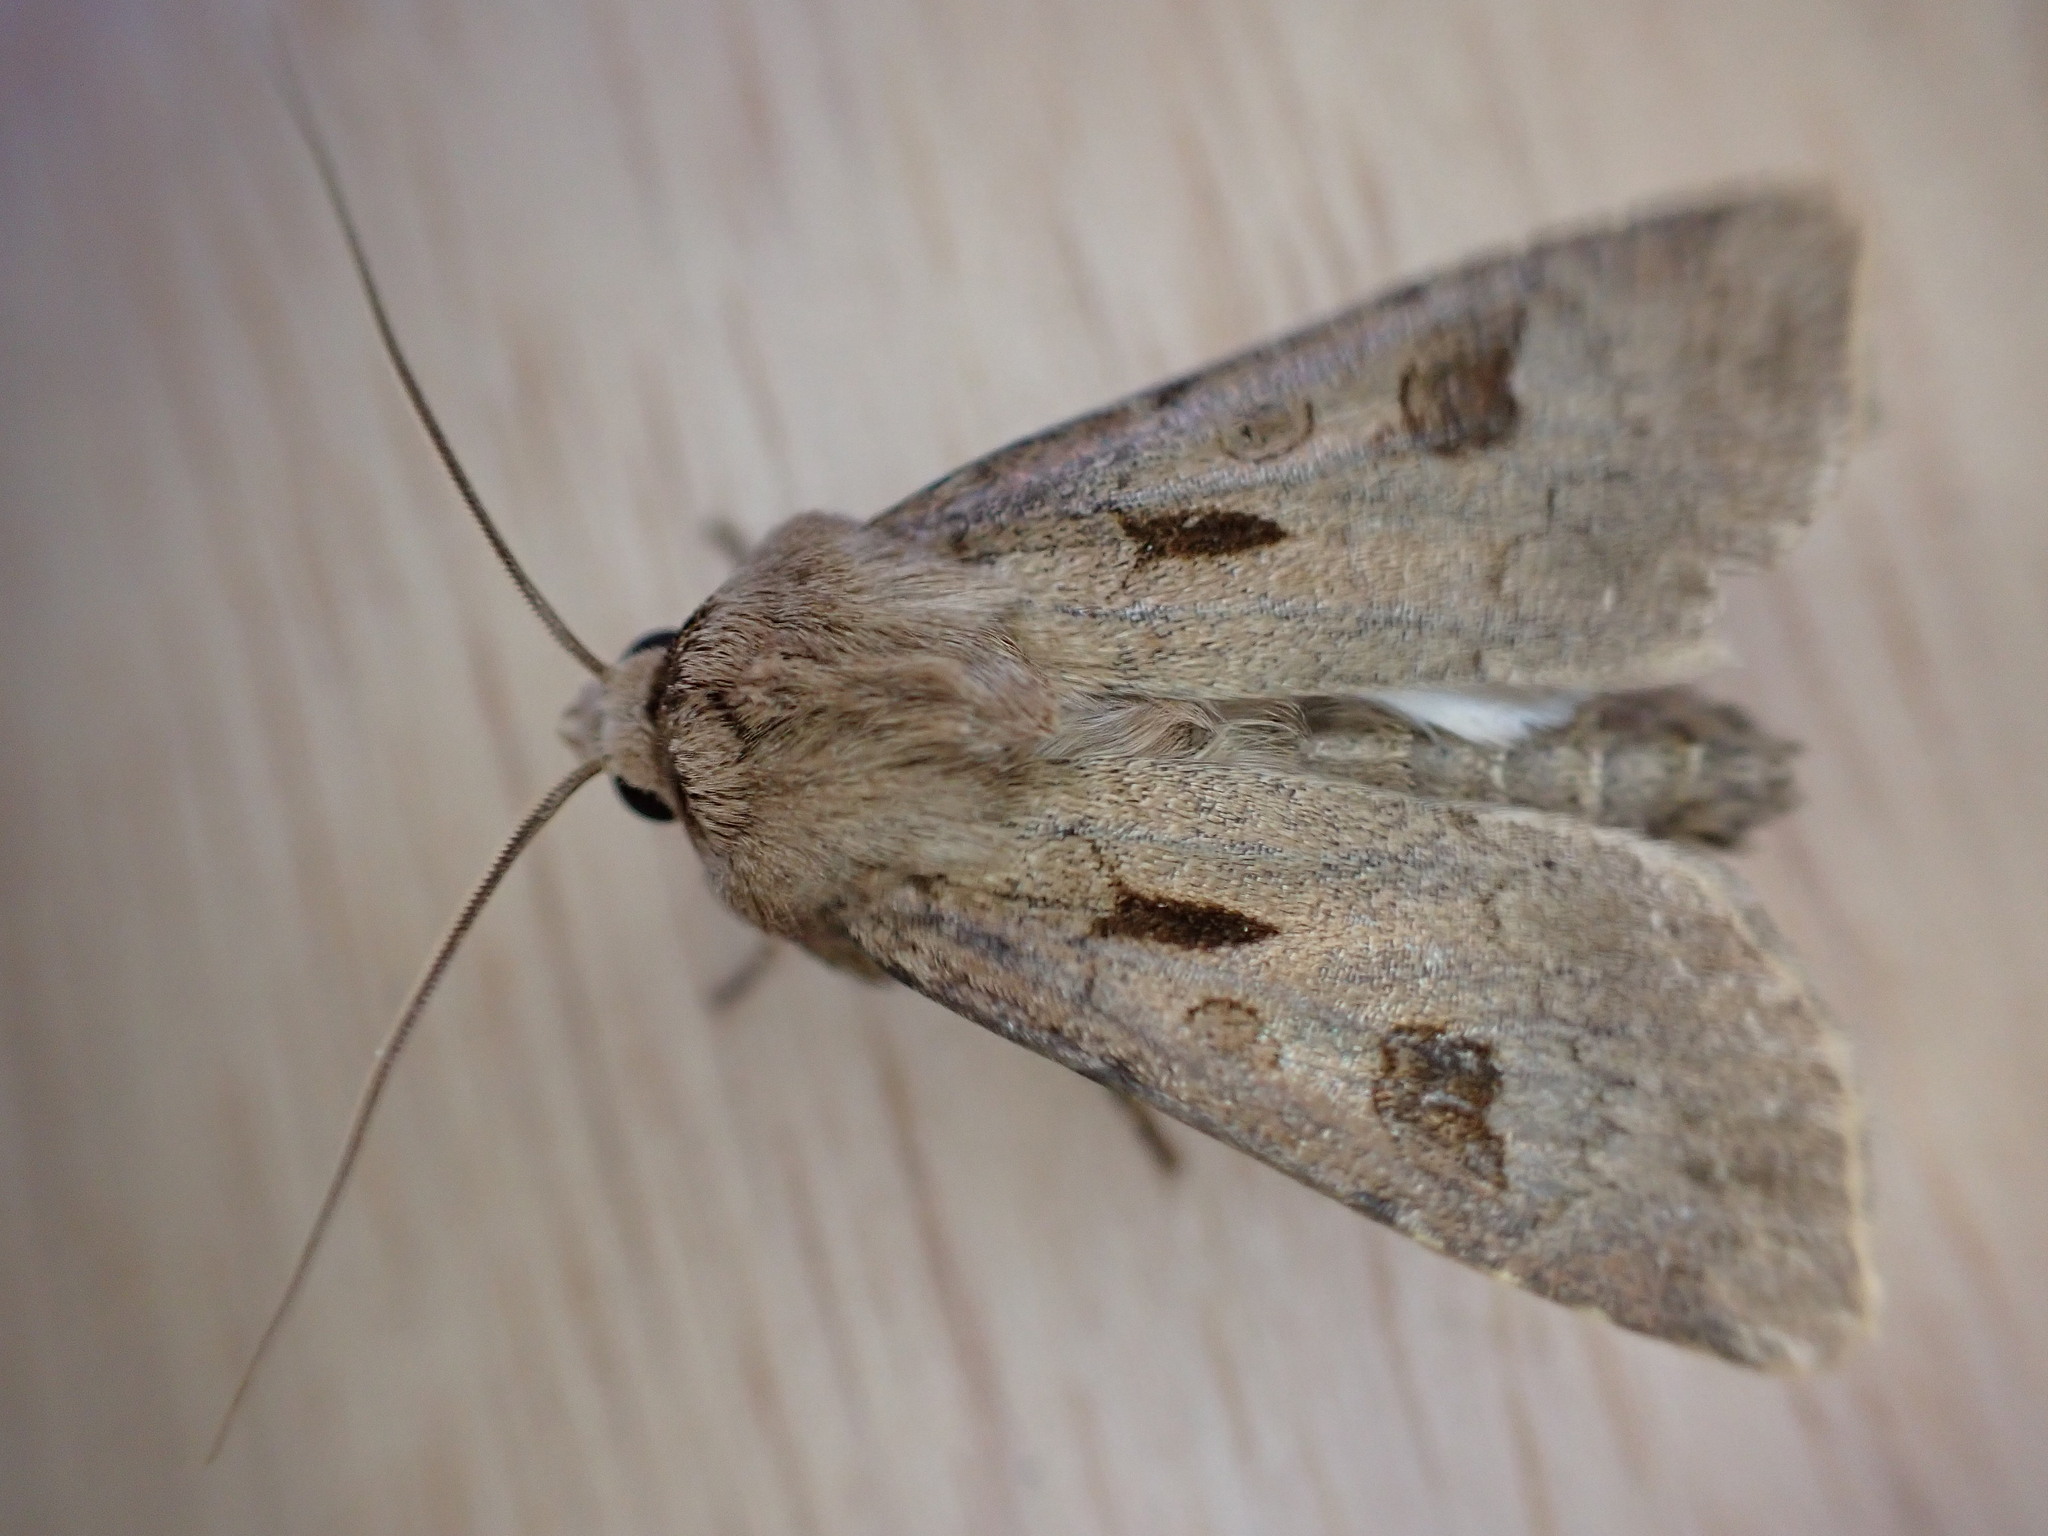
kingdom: Animalia
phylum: Arthropoda
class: Insecta
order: Lepidoptera
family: Noctuidae
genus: Agrotis
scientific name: Agrotis exclamationis
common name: Heart and dart
